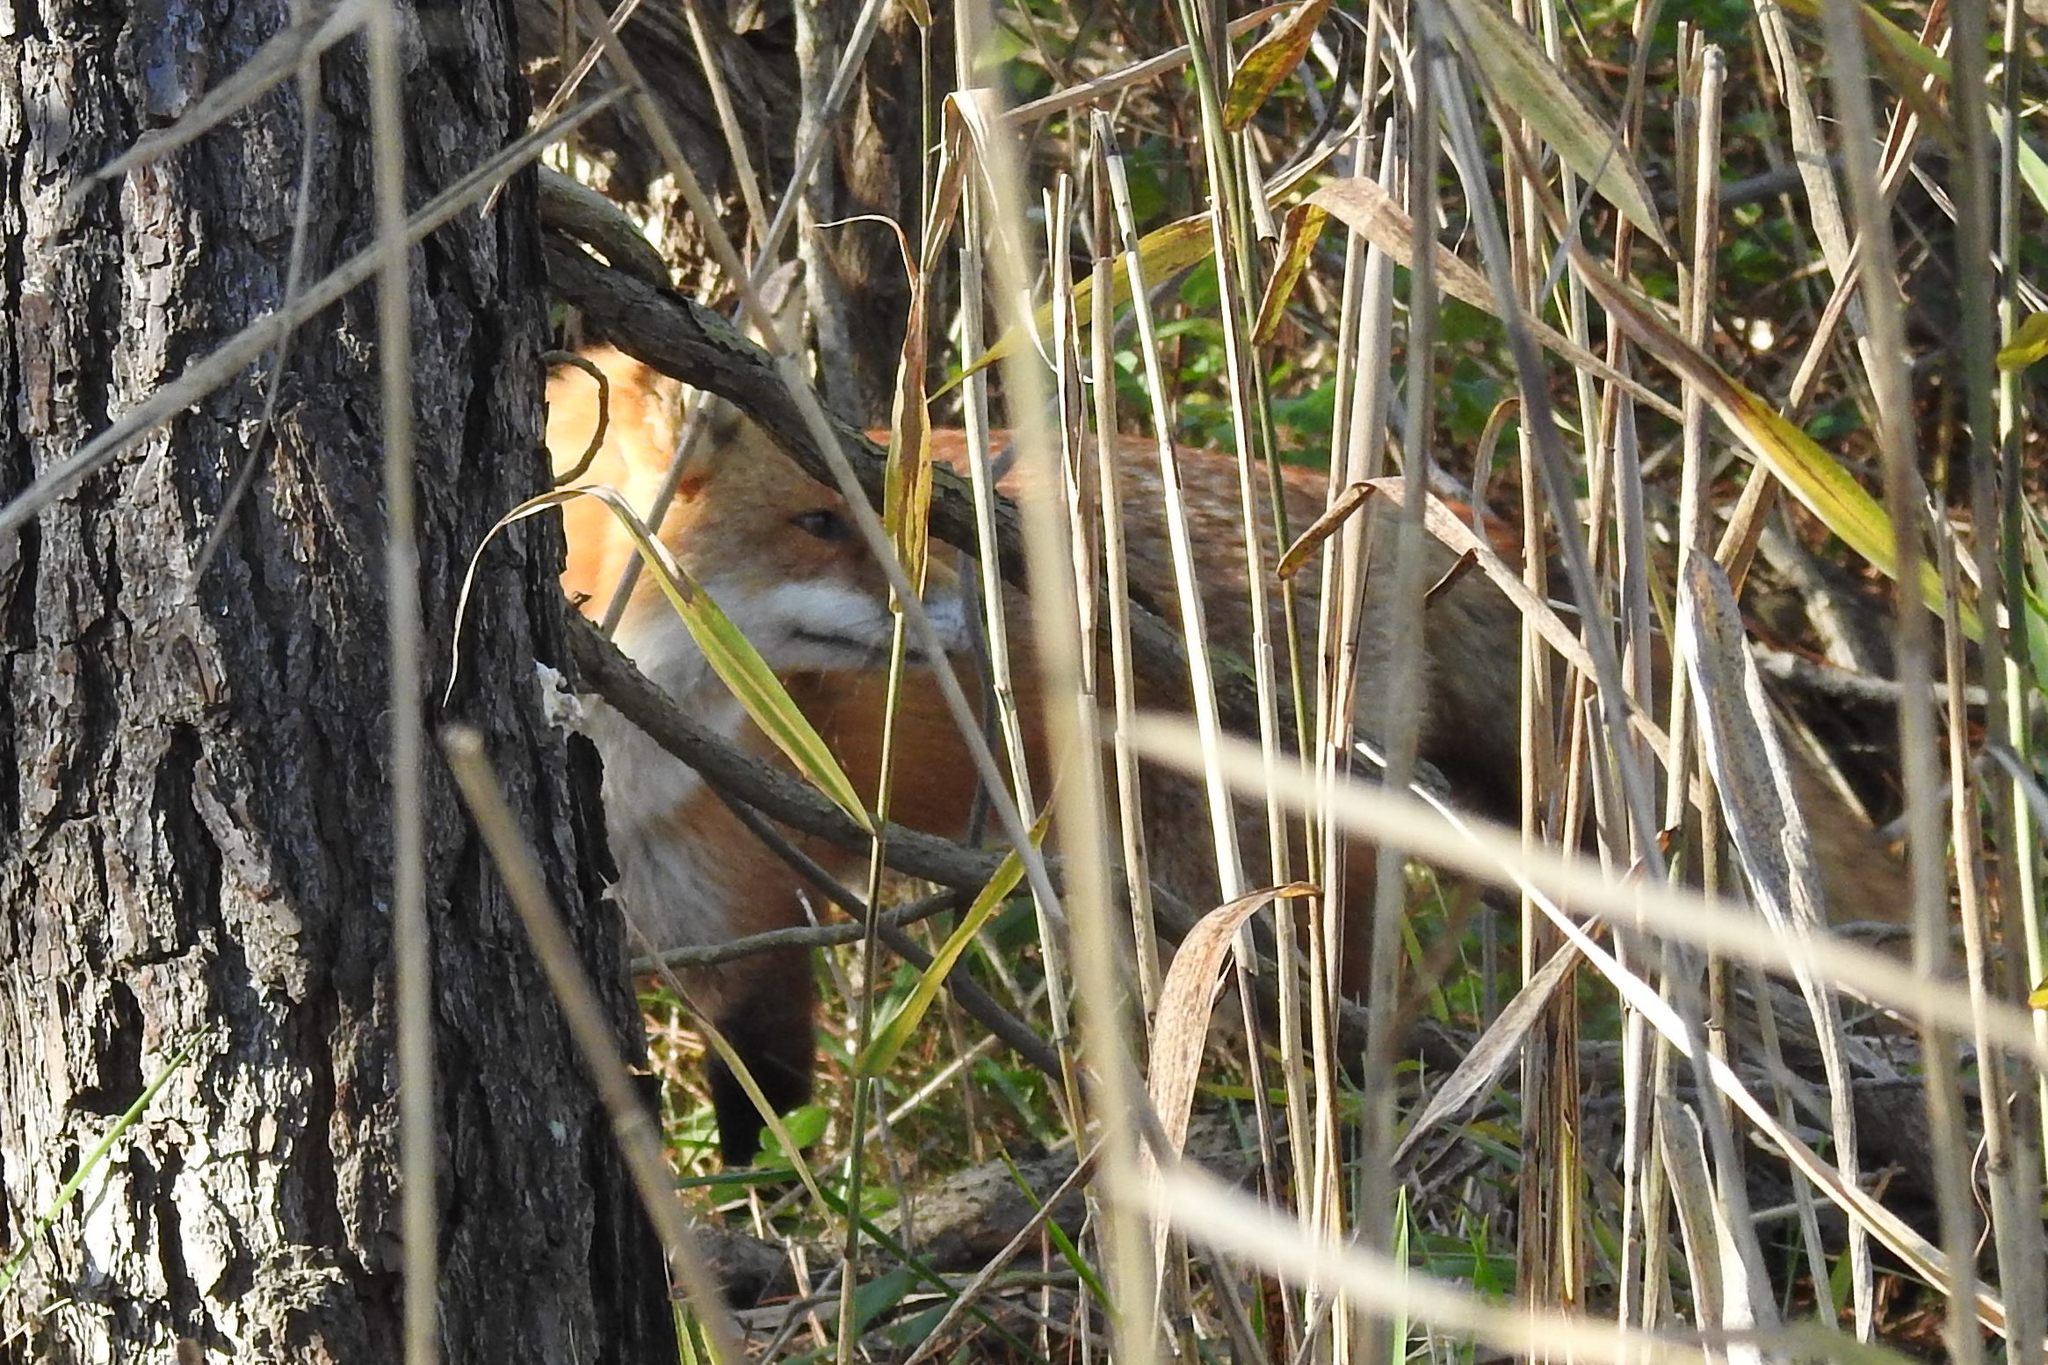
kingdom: Animalia
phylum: Chordata
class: Mammalia
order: Carnivora
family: Canidae
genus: Vulpes
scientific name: Vulpes vulpes
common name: Red fox
